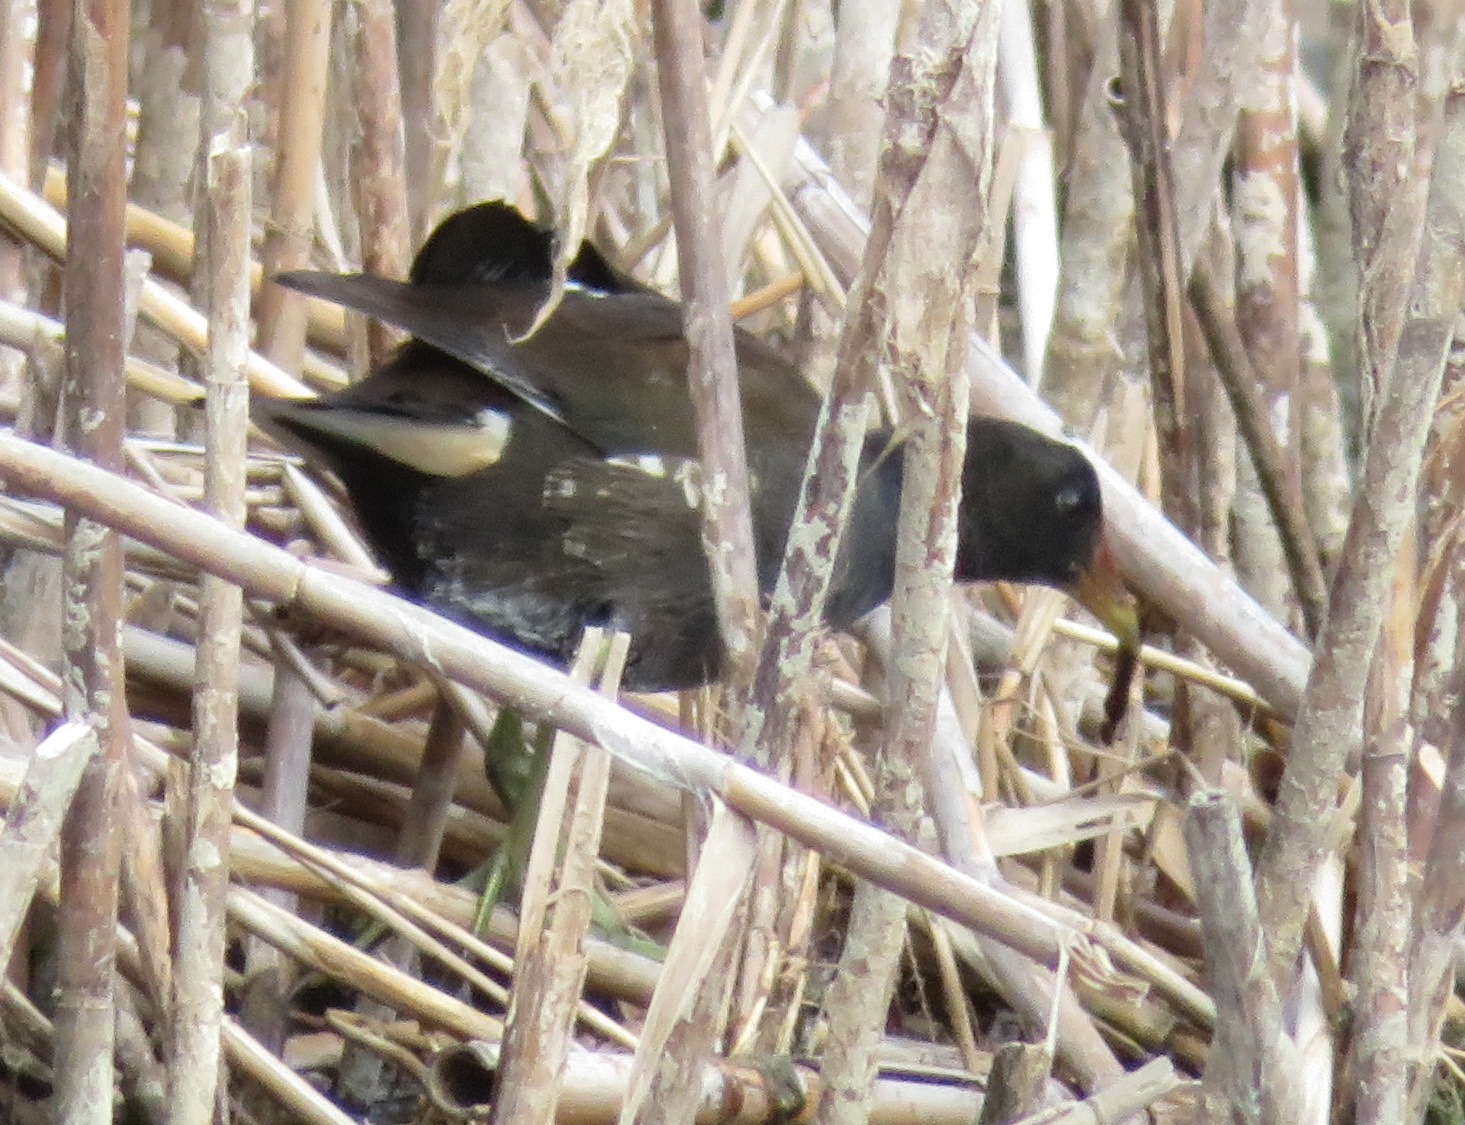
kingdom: Animalia
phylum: Chordata
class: Aves
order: Gruiformes
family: Rallidae
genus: Gallinula
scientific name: Gallinula chloropus
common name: Common moorhen
